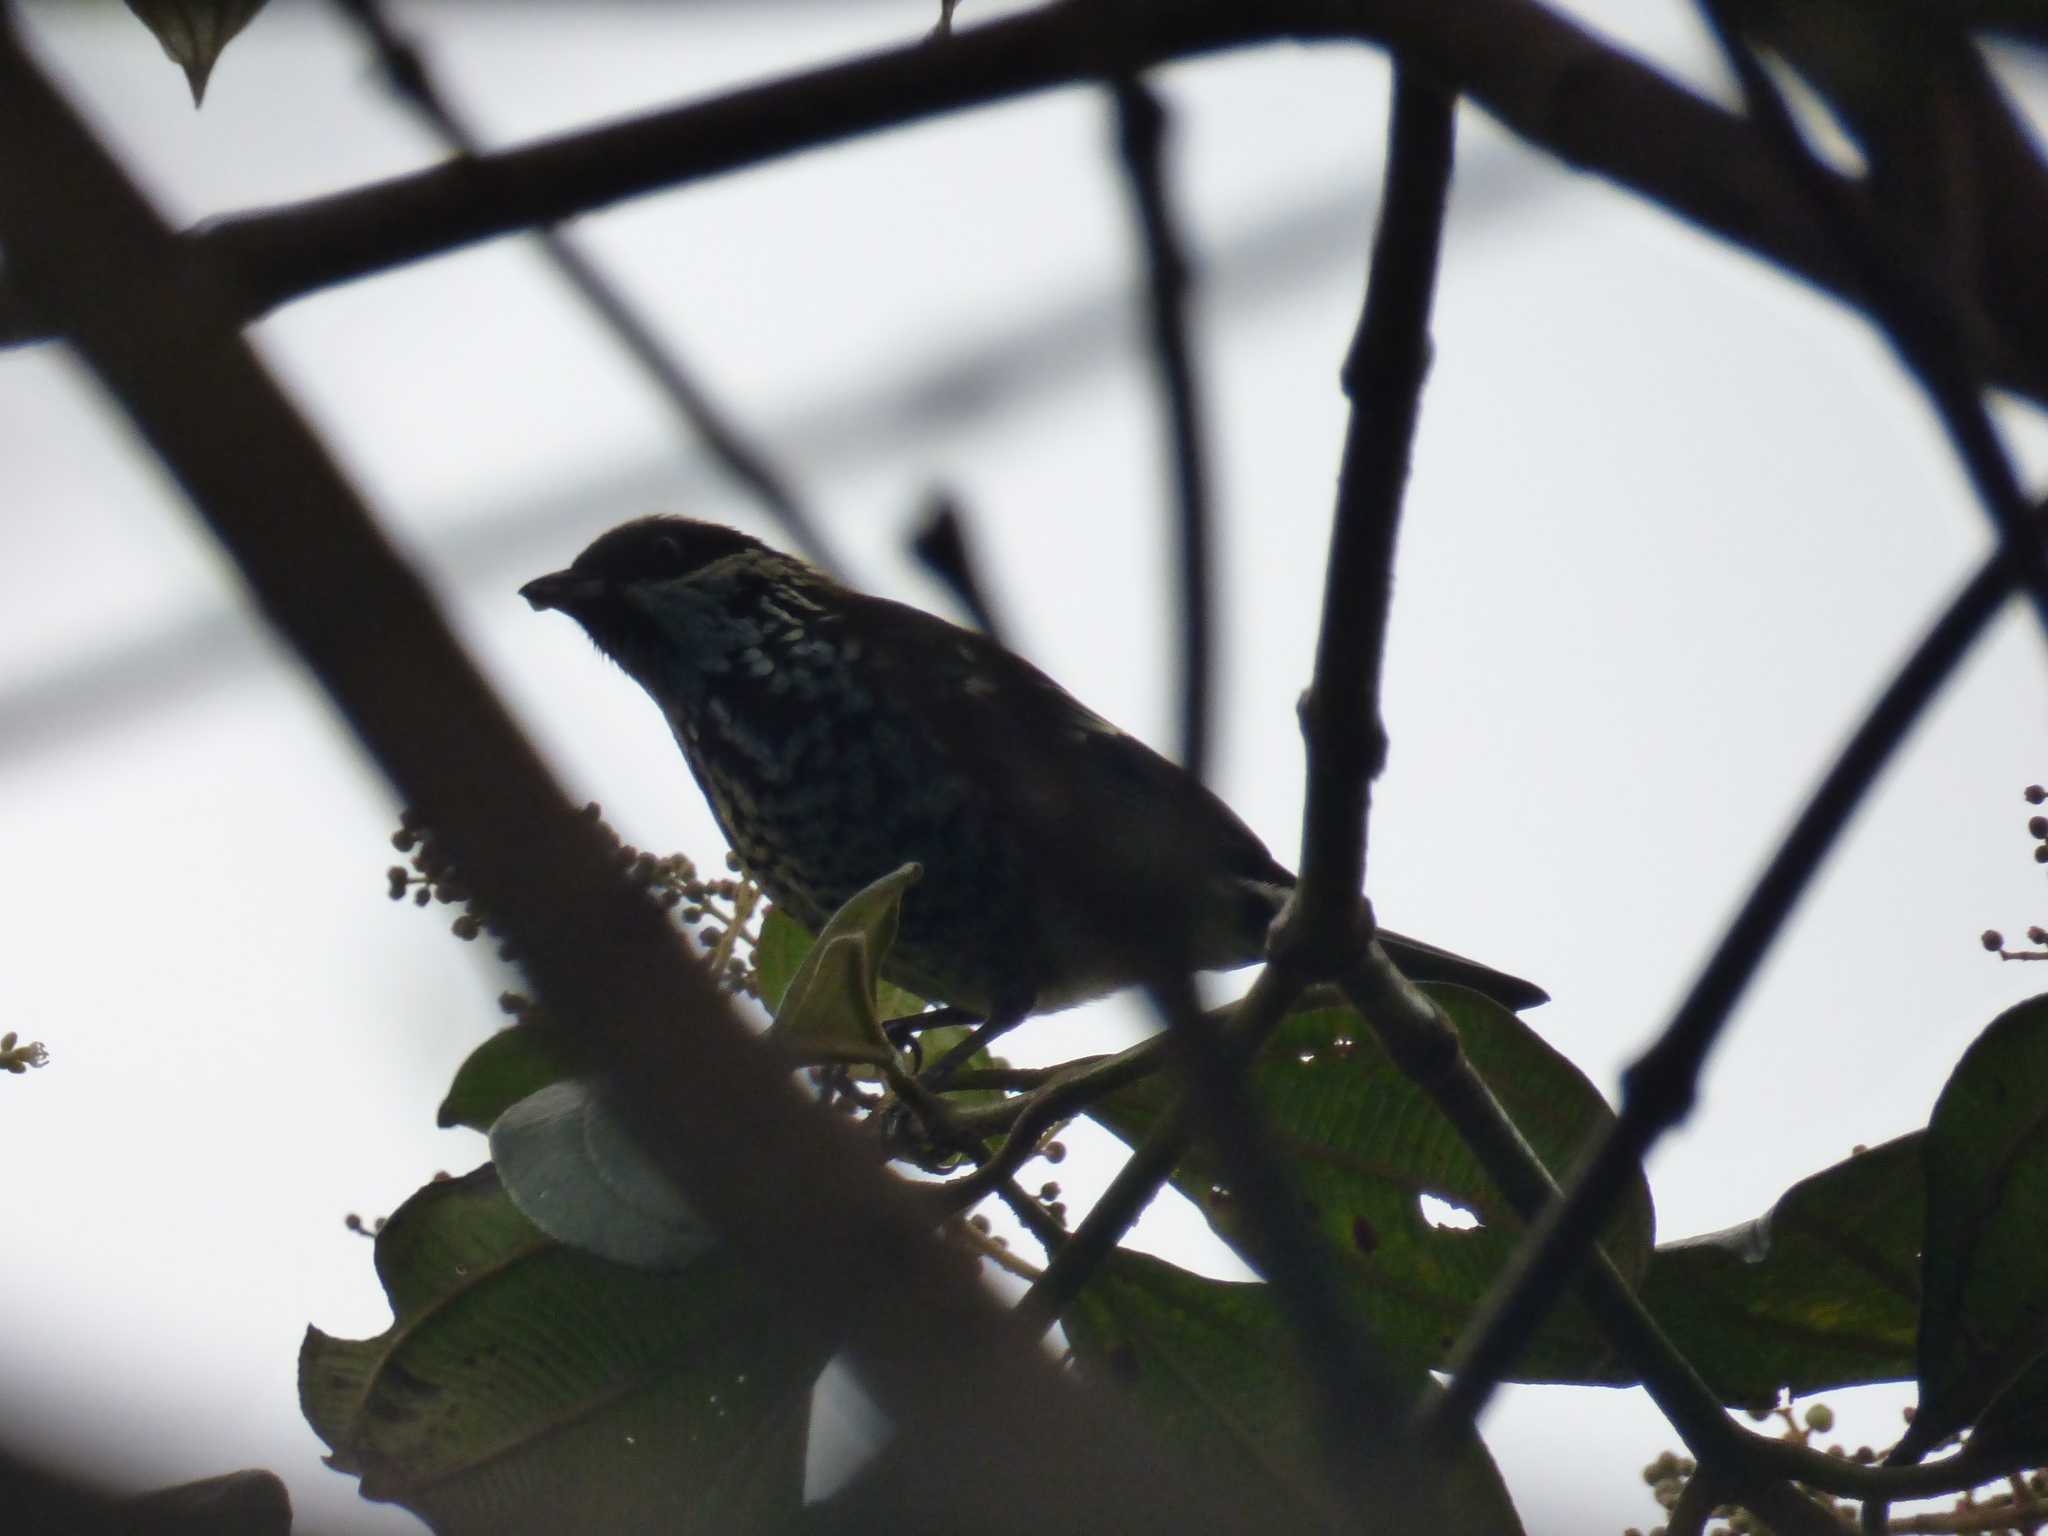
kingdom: Animalia
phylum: Chordata
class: Aves
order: Passeriformes
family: Thraupidae
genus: Tangara
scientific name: Tangara nigroviridis
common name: Beryl-spangled tanager
